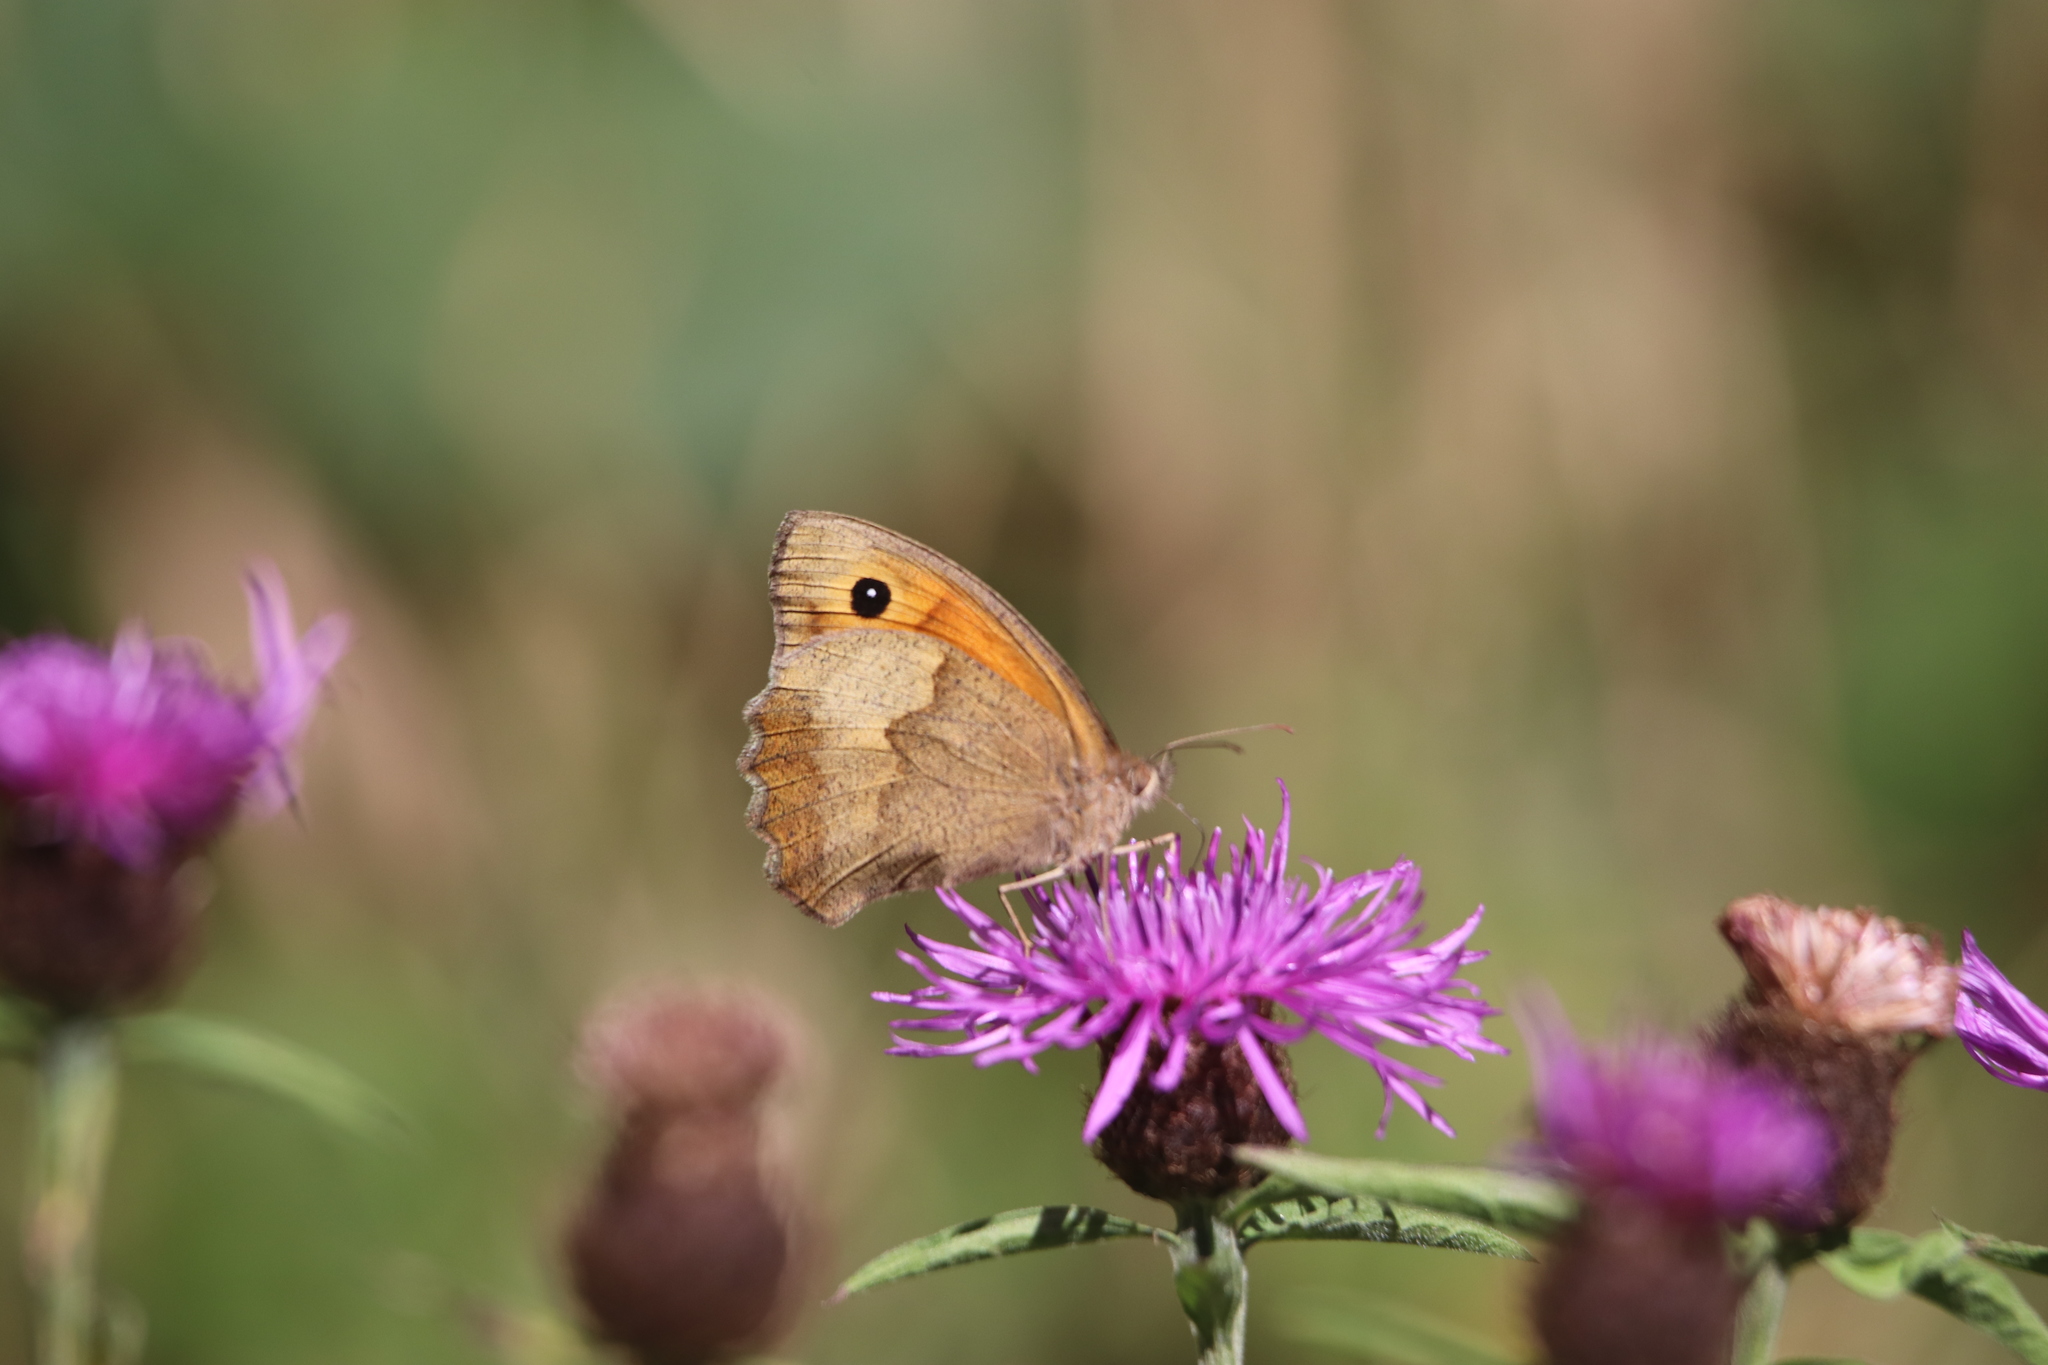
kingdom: Animalia
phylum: Arthropoda
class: Insecta
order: Lepidoptera
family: Nymphalidae
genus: Maniola
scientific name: Maniola jurtina
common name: Meadow brown
